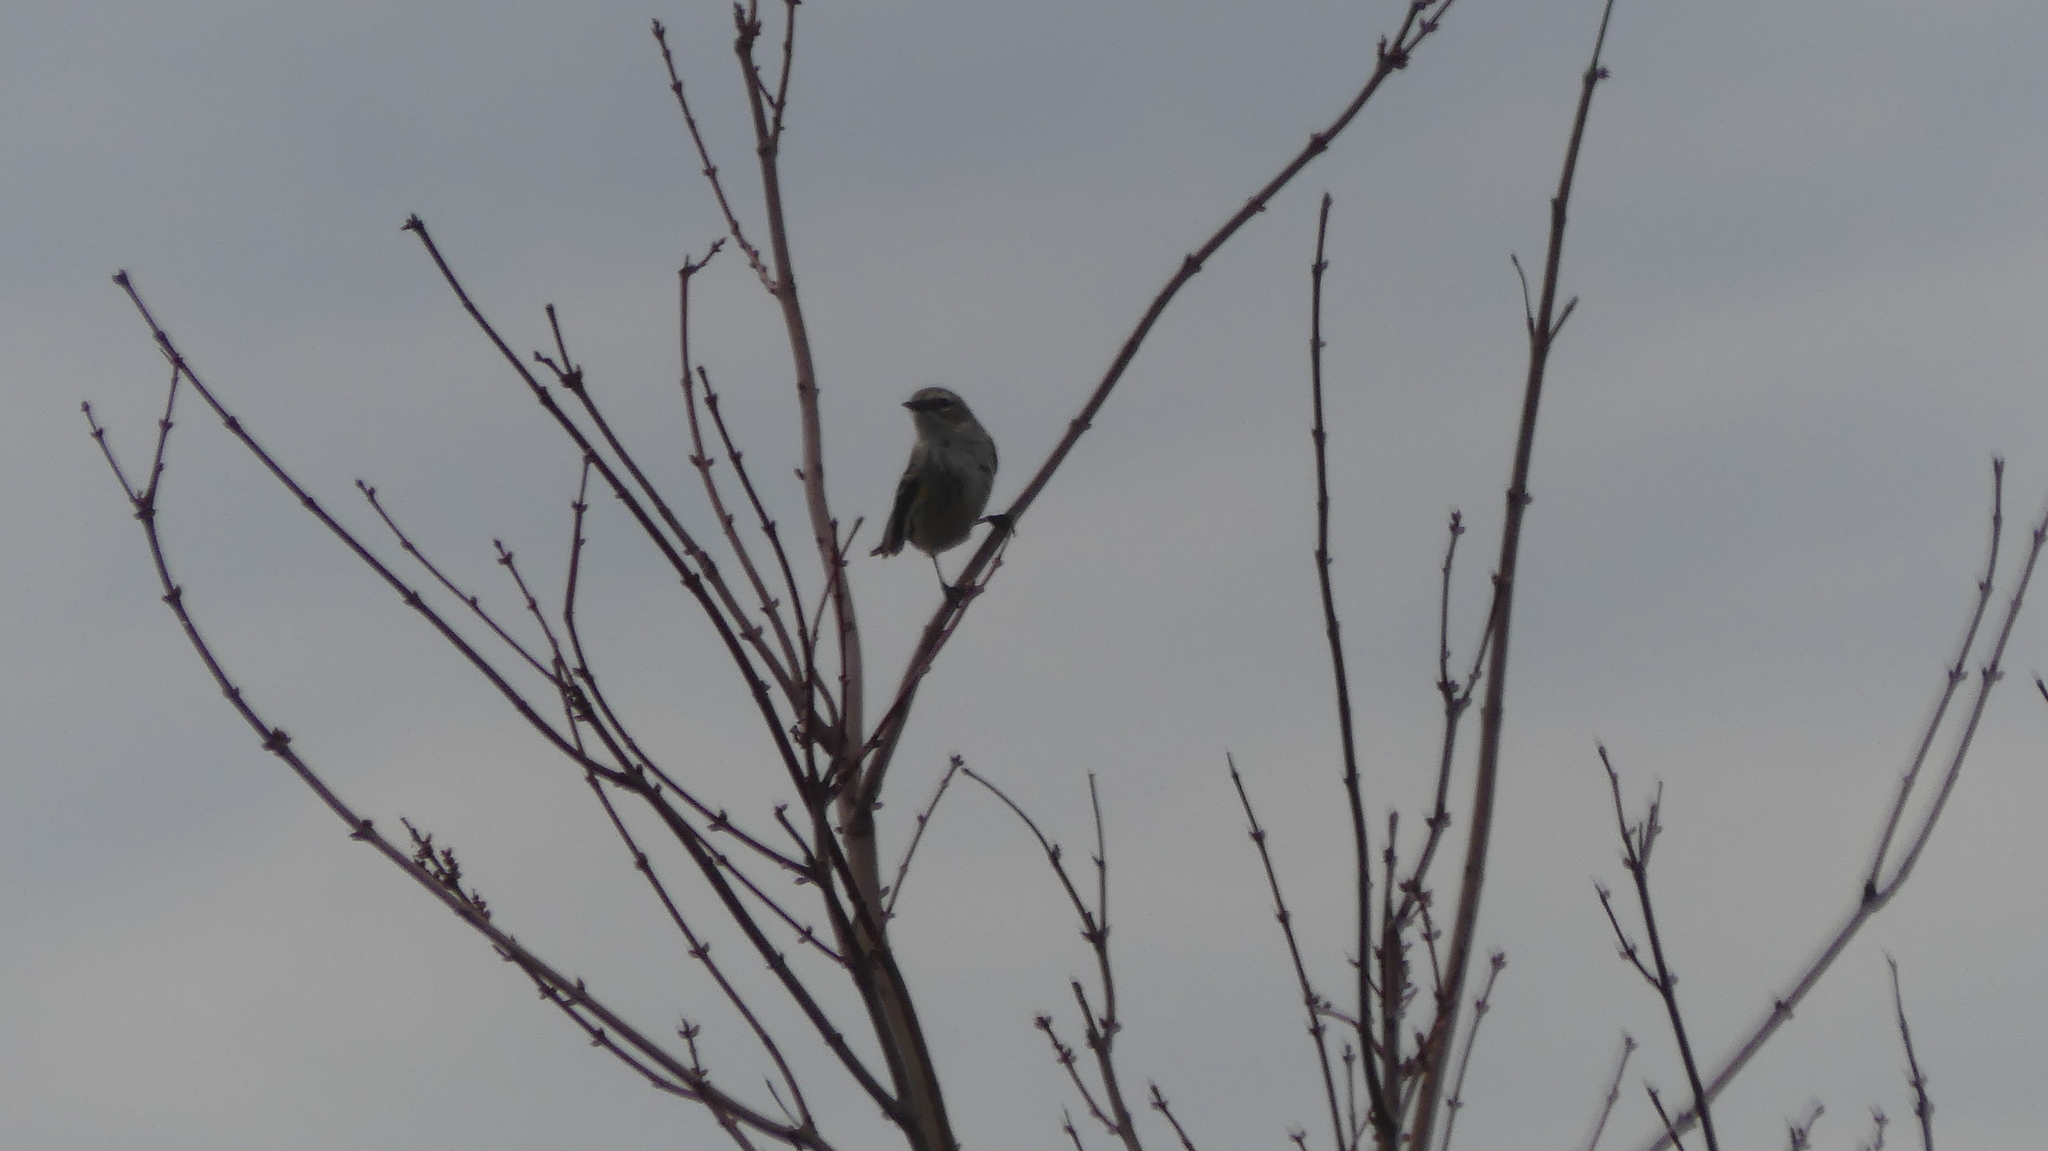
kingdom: Animalia
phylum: Chordata
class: Aves
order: Passeriformes
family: Parulidae
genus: Setophaga
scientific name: Setophaga coronata
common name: Myrtle warbler
